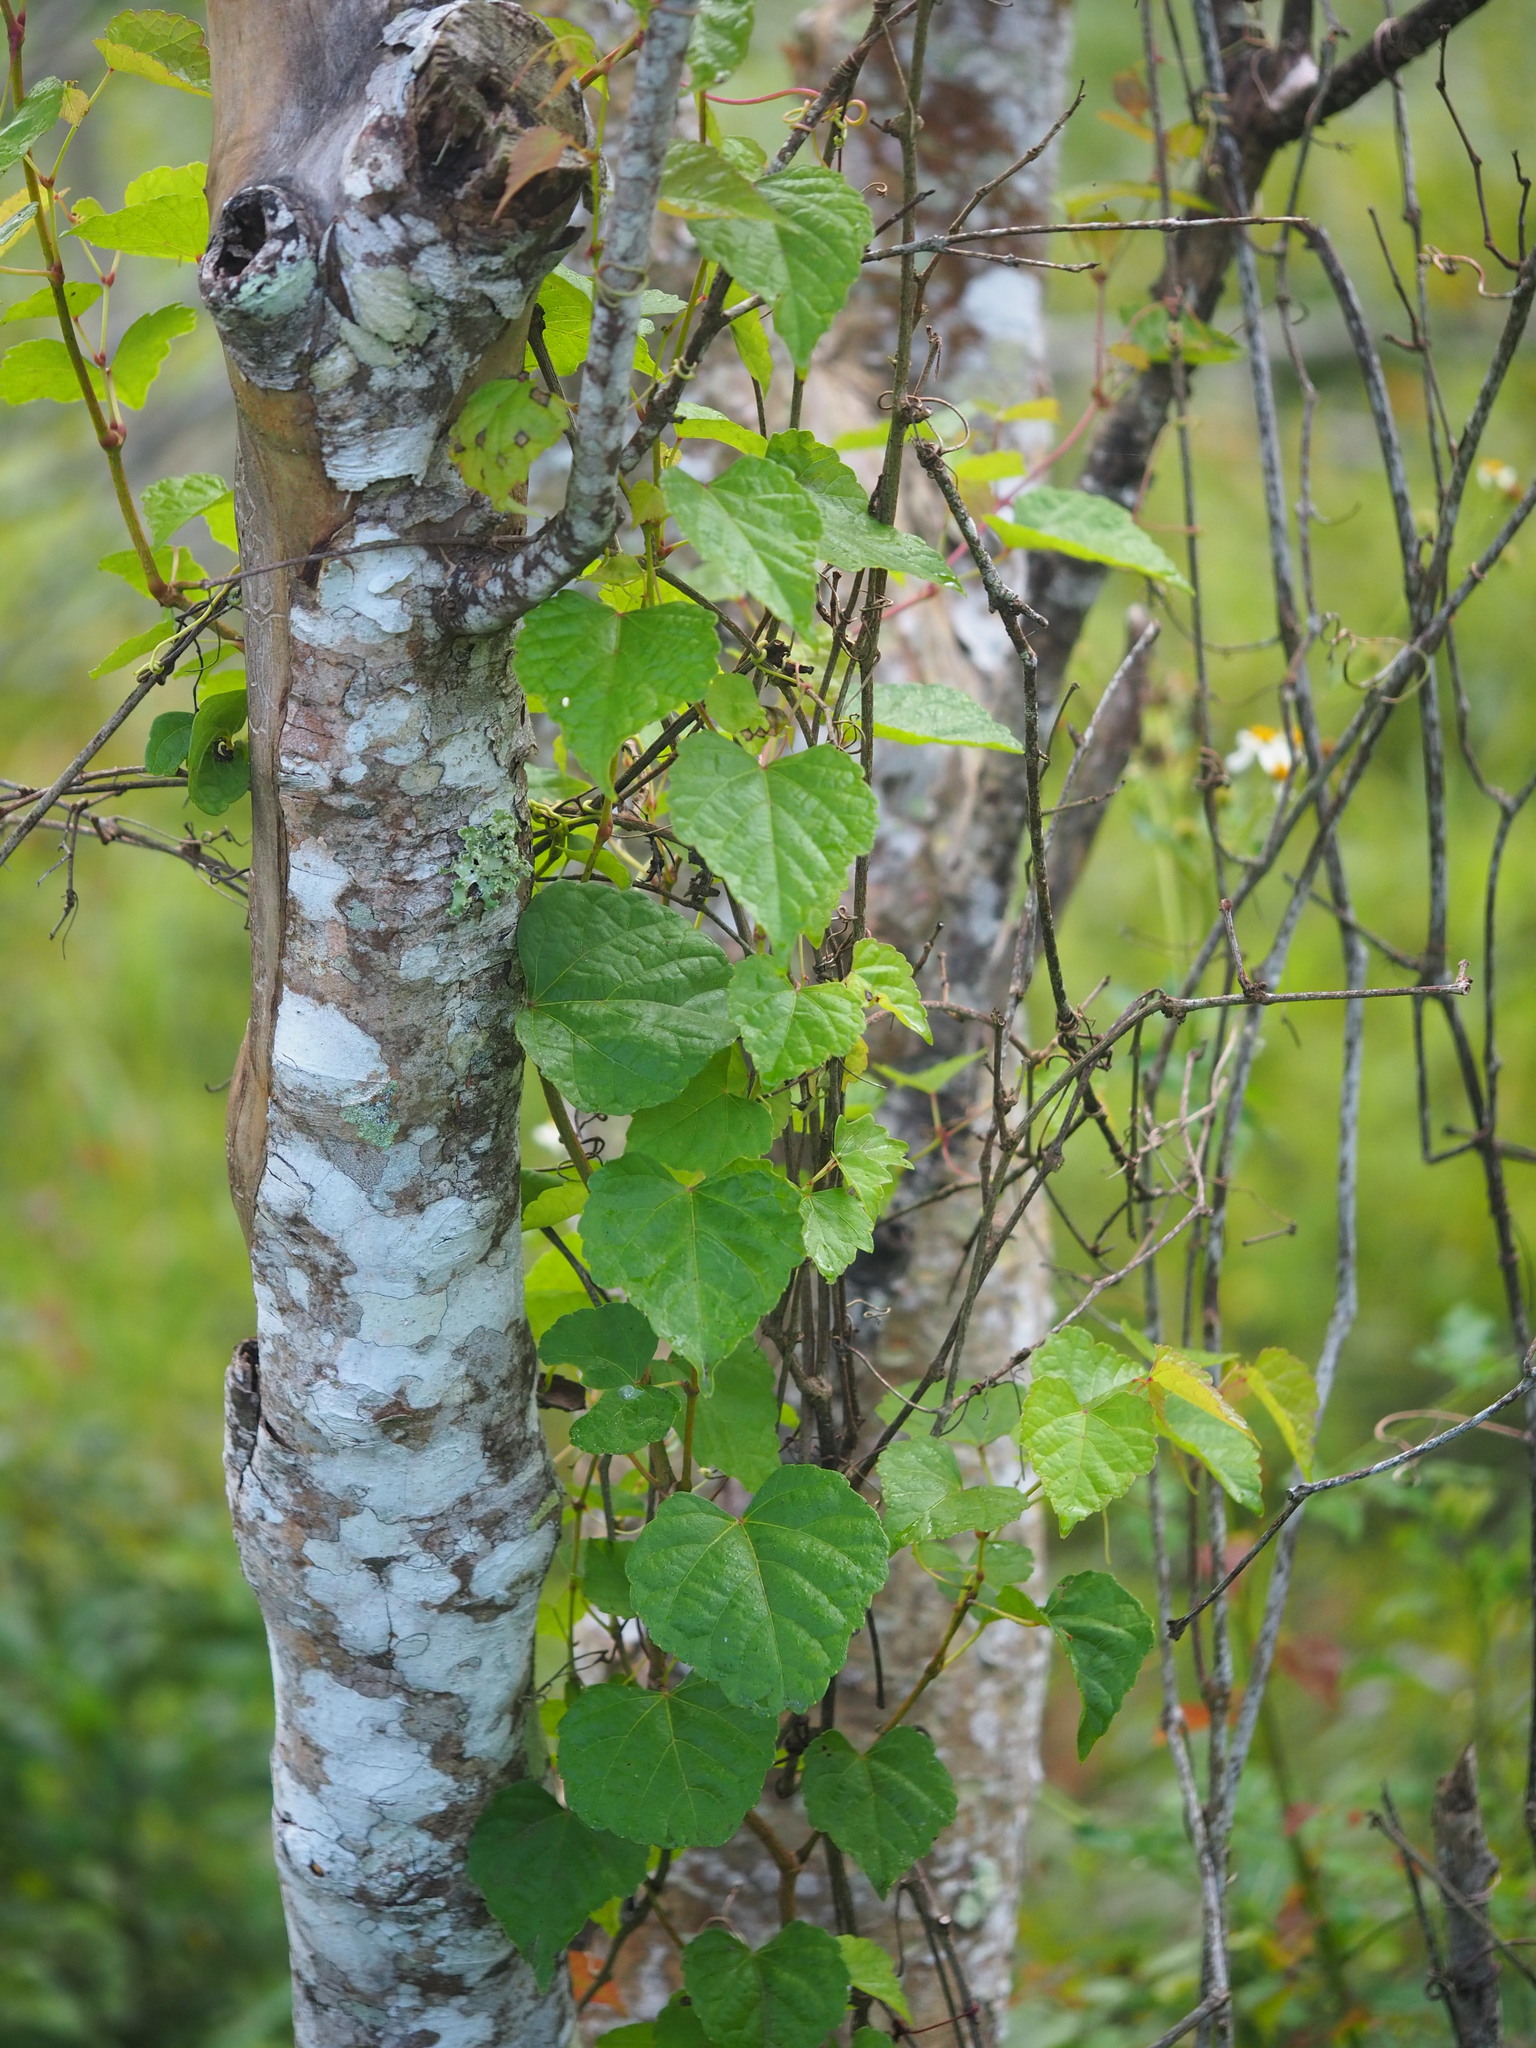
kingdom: Plantae
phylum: Tracheophyta
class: Magnoliopsida
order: Vitales
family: Vitaceae
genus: Ampelopsis
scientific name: Ampelopsis glandulosa
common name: Amur peppervine
